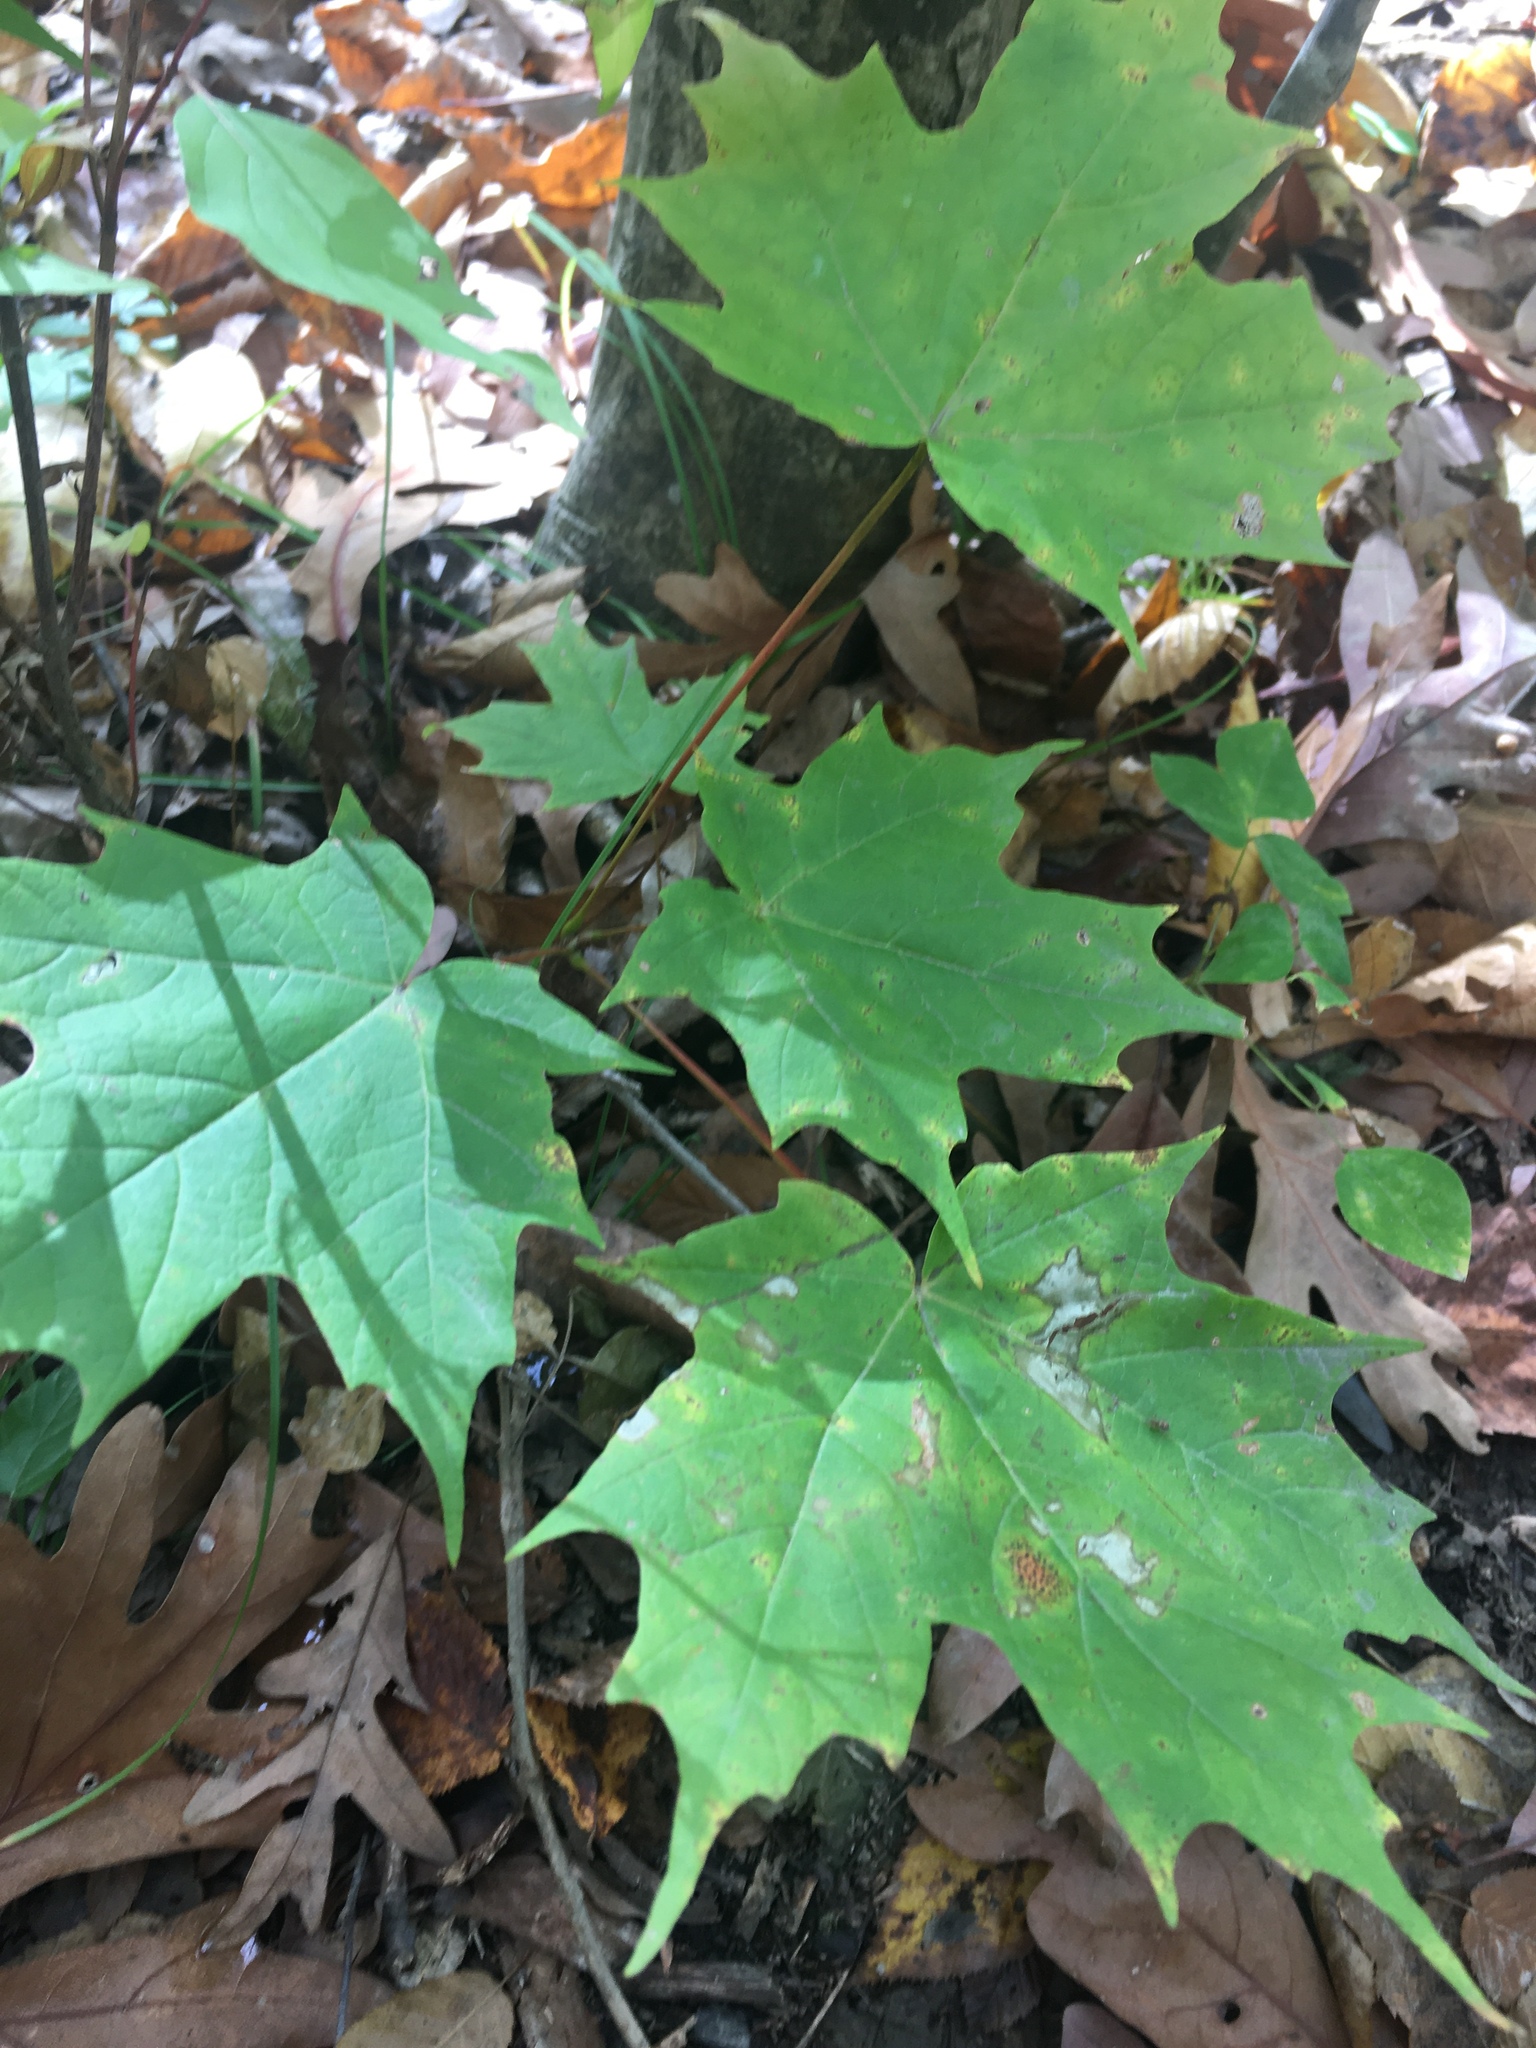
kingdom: Plantae
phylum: Tracheophyta
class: Magnoliopsida
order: Sapindales
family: Sapindaceae
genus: Acer
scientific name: Acer saccharum
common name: Sugar maple
